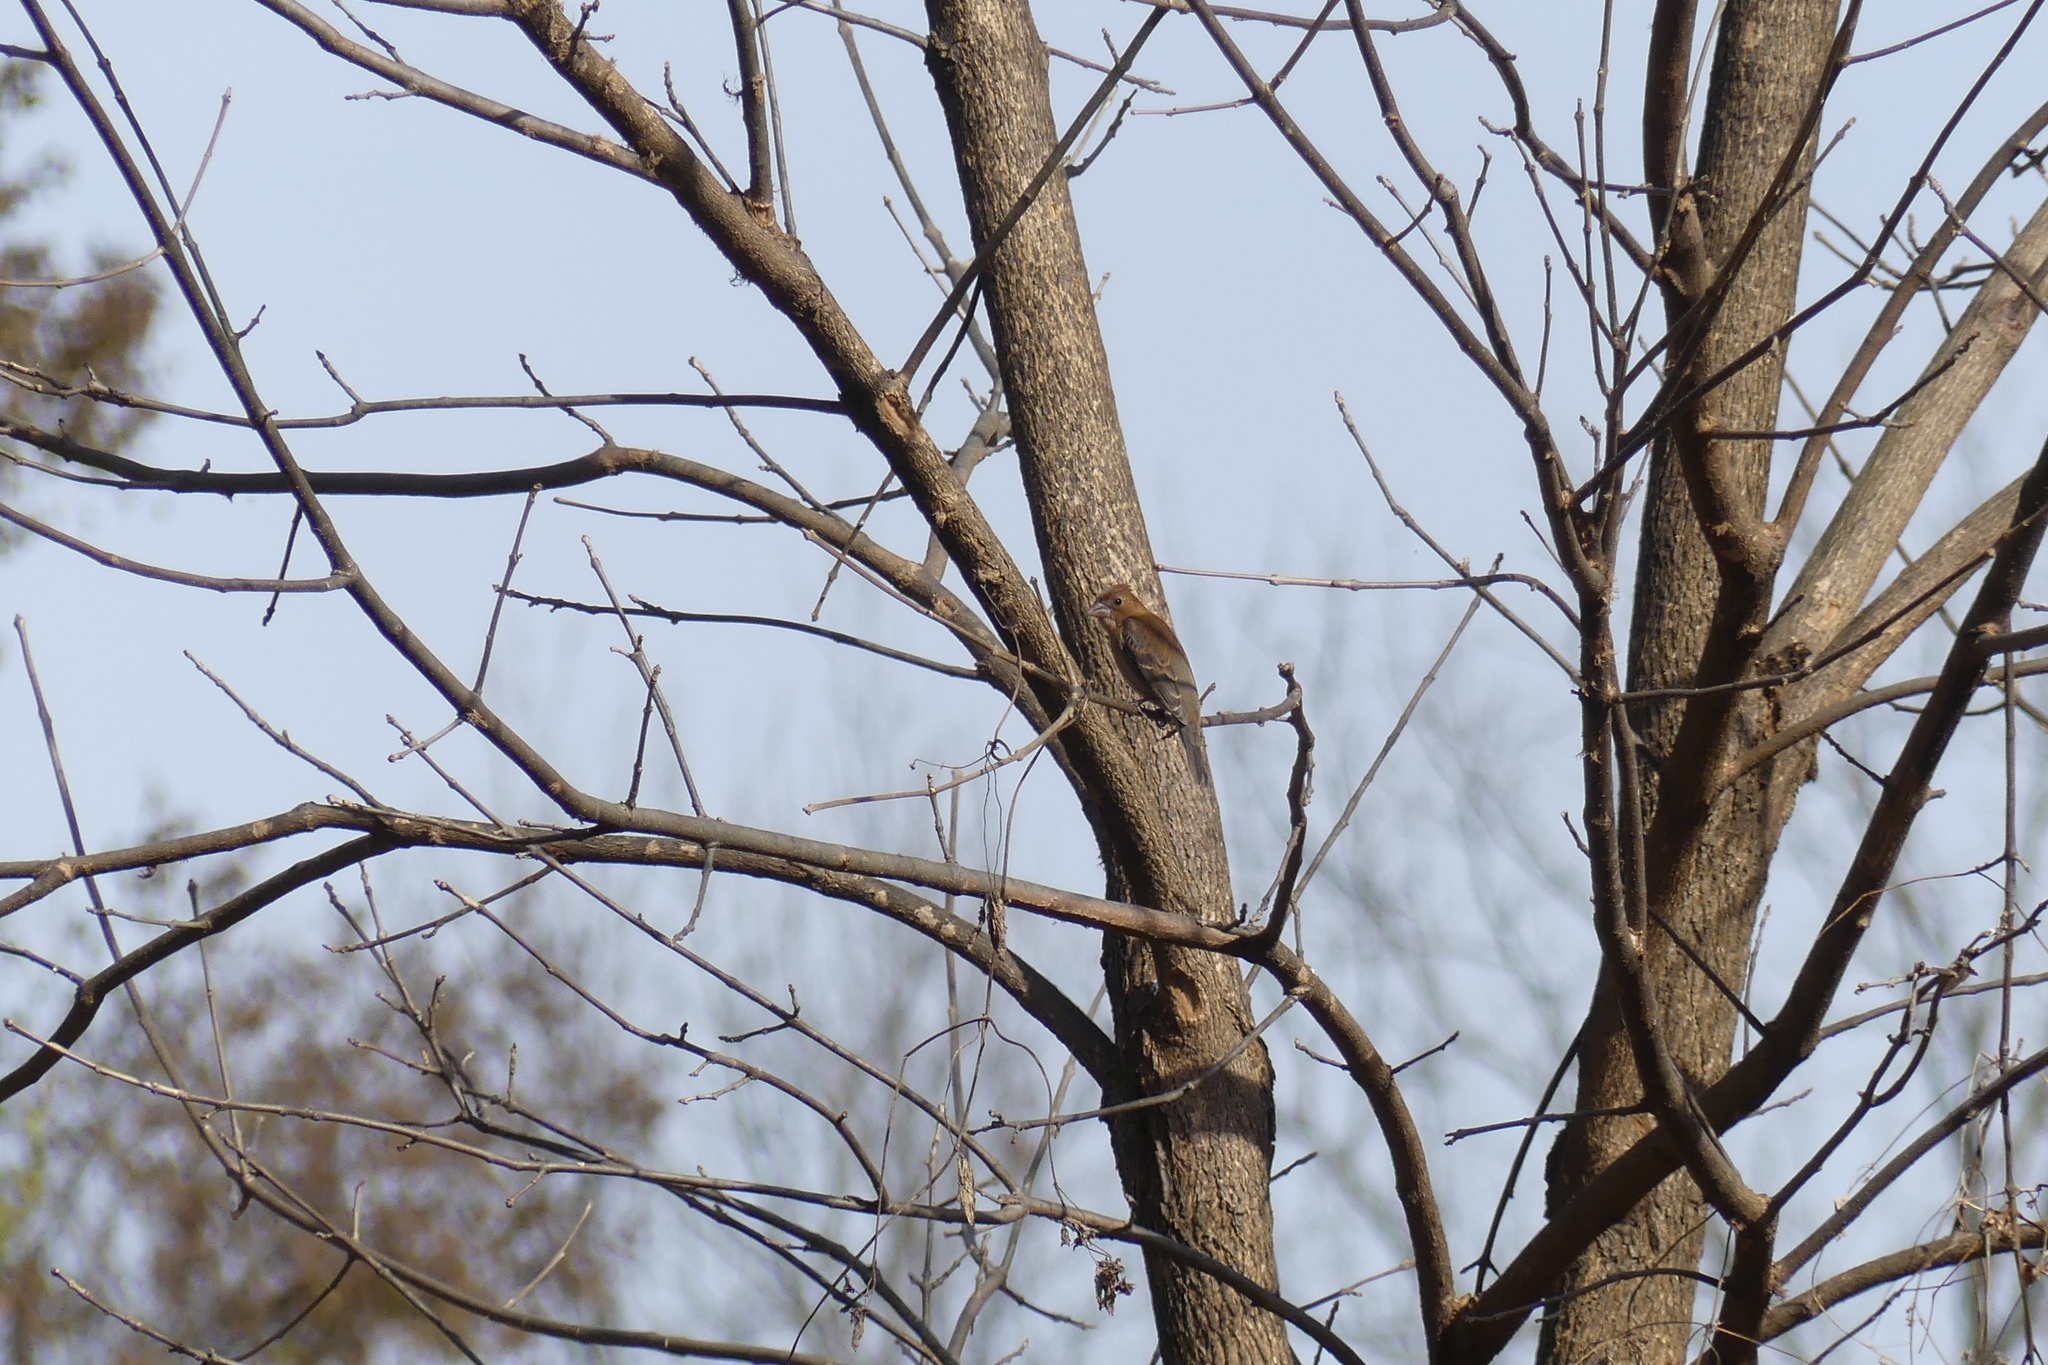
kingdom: Animalia
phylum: Chordata
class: Aves
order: Passeriformes
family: Cardinalidae
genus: Passerina
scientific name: Passerina caerulea
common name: Blue grosbeak
